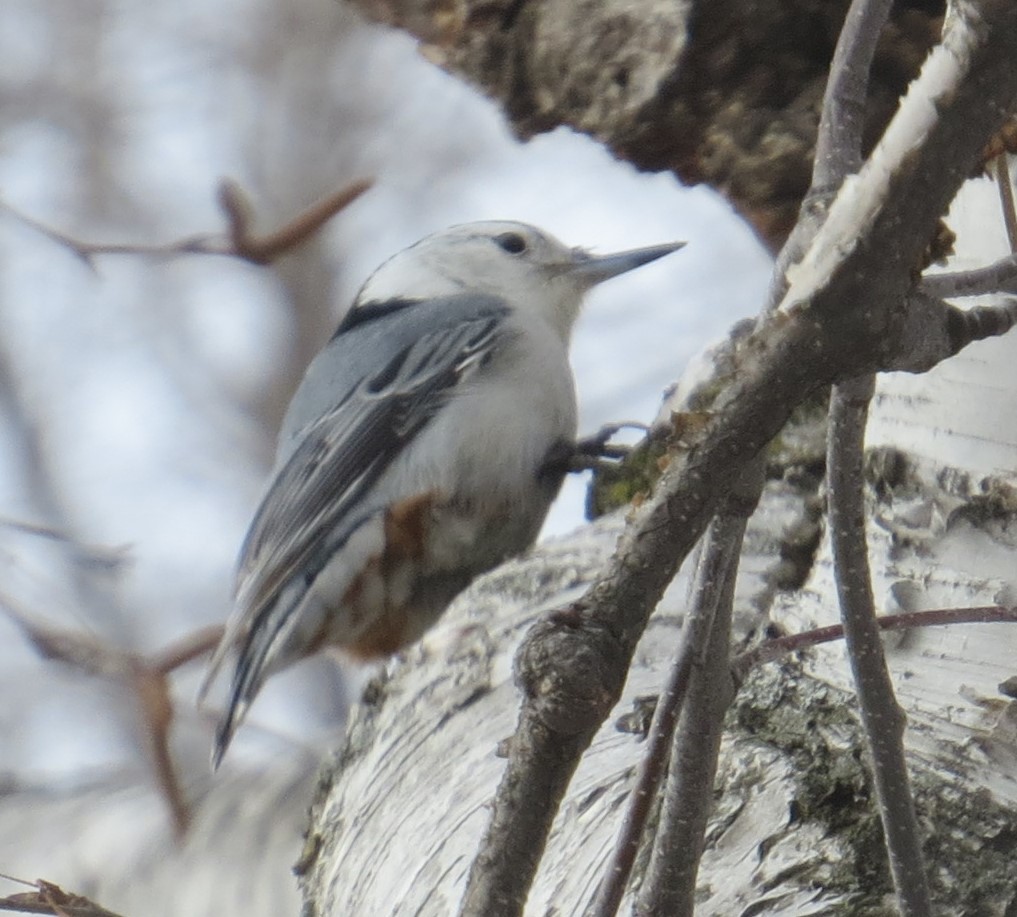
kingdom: Animalia
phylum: Chordata
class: Aves
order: Passeriformes
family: Sittidae
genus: Sitta
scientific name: Sitta carolinensis
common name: White-breasted nuthatch
